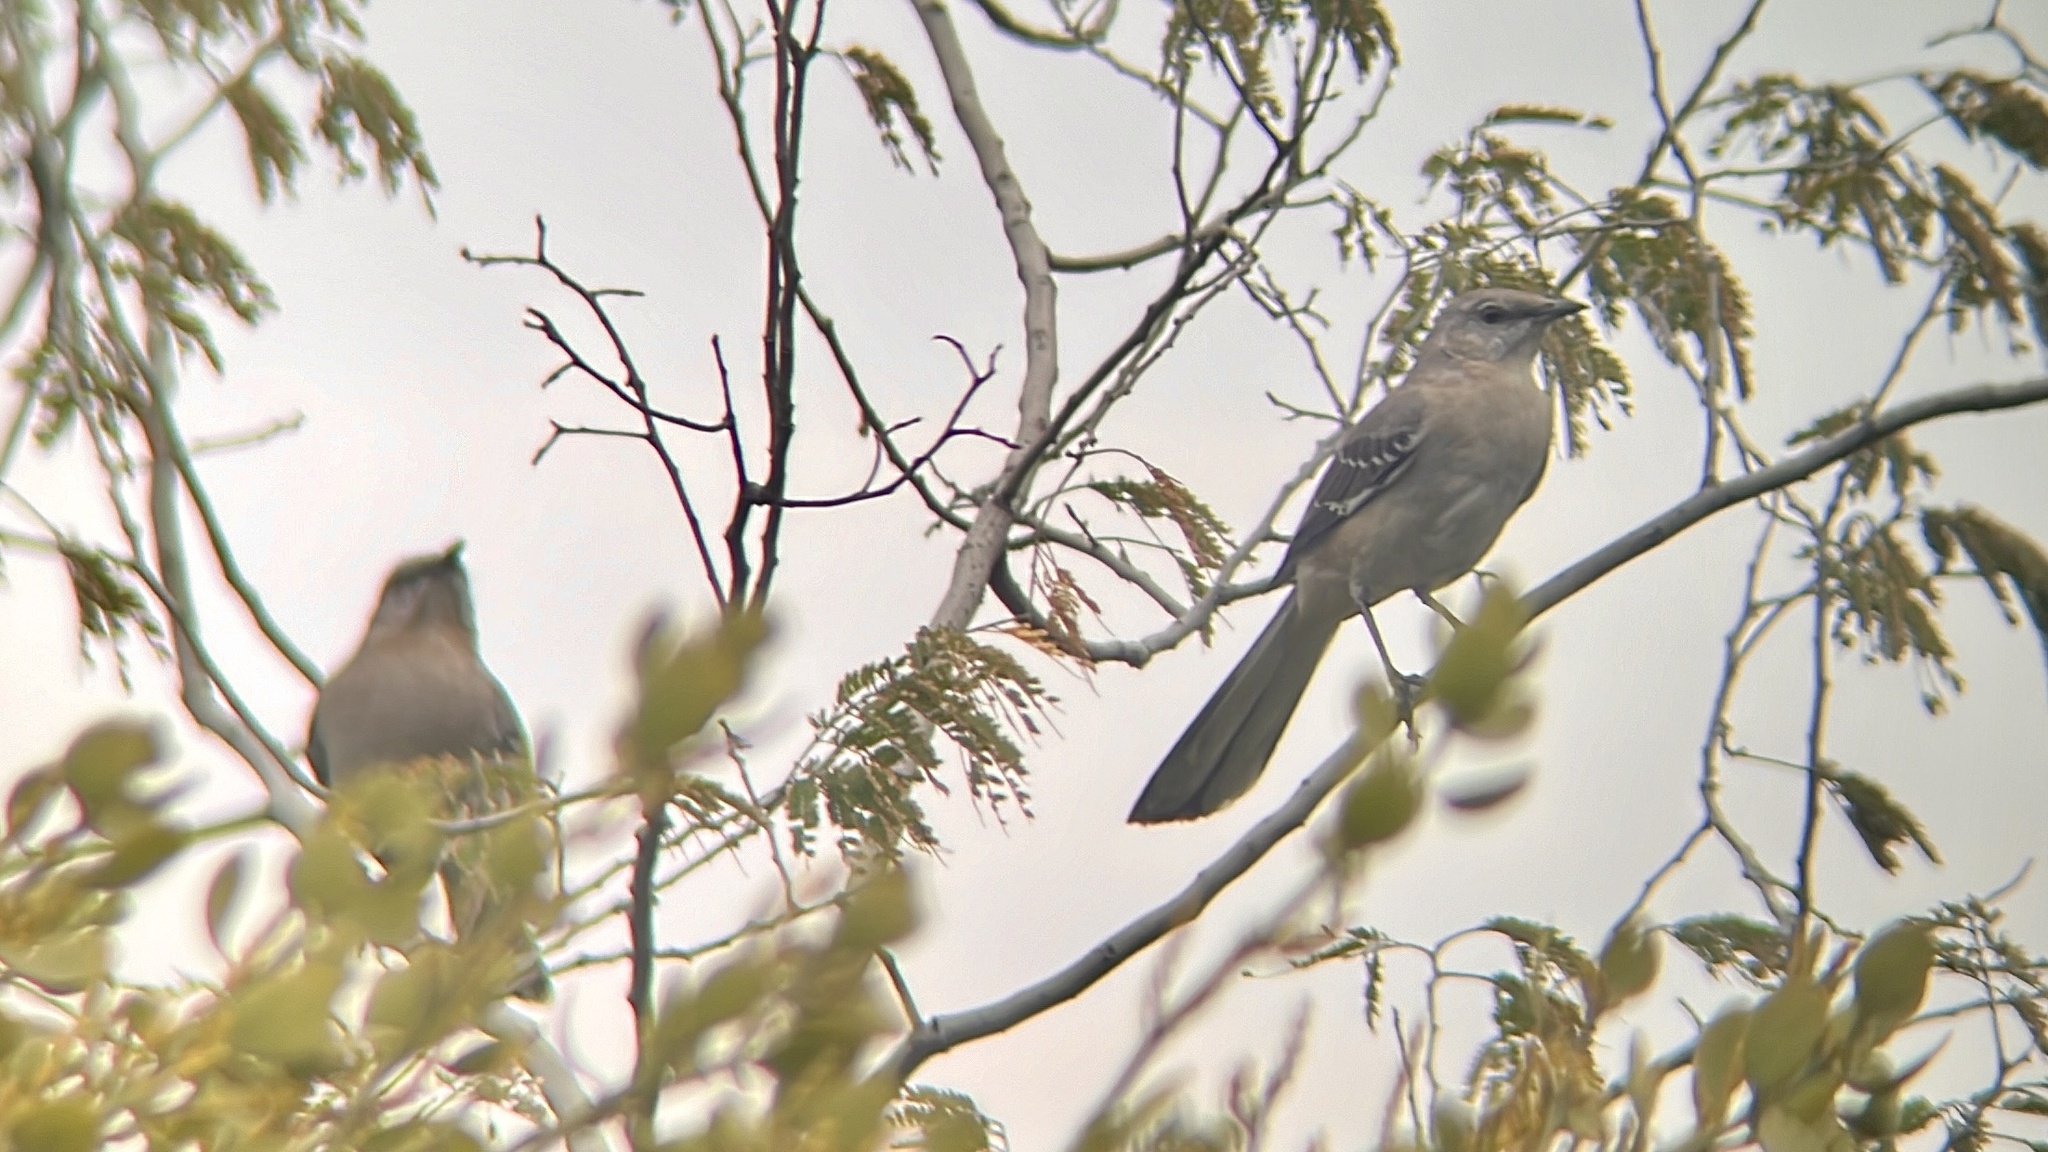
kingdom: Animalia
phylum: Chordata
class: Aves
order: Passeriformes
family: Mimidae
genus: Mimus
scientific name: Mimus polyglottos
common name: Northern mockingbird
